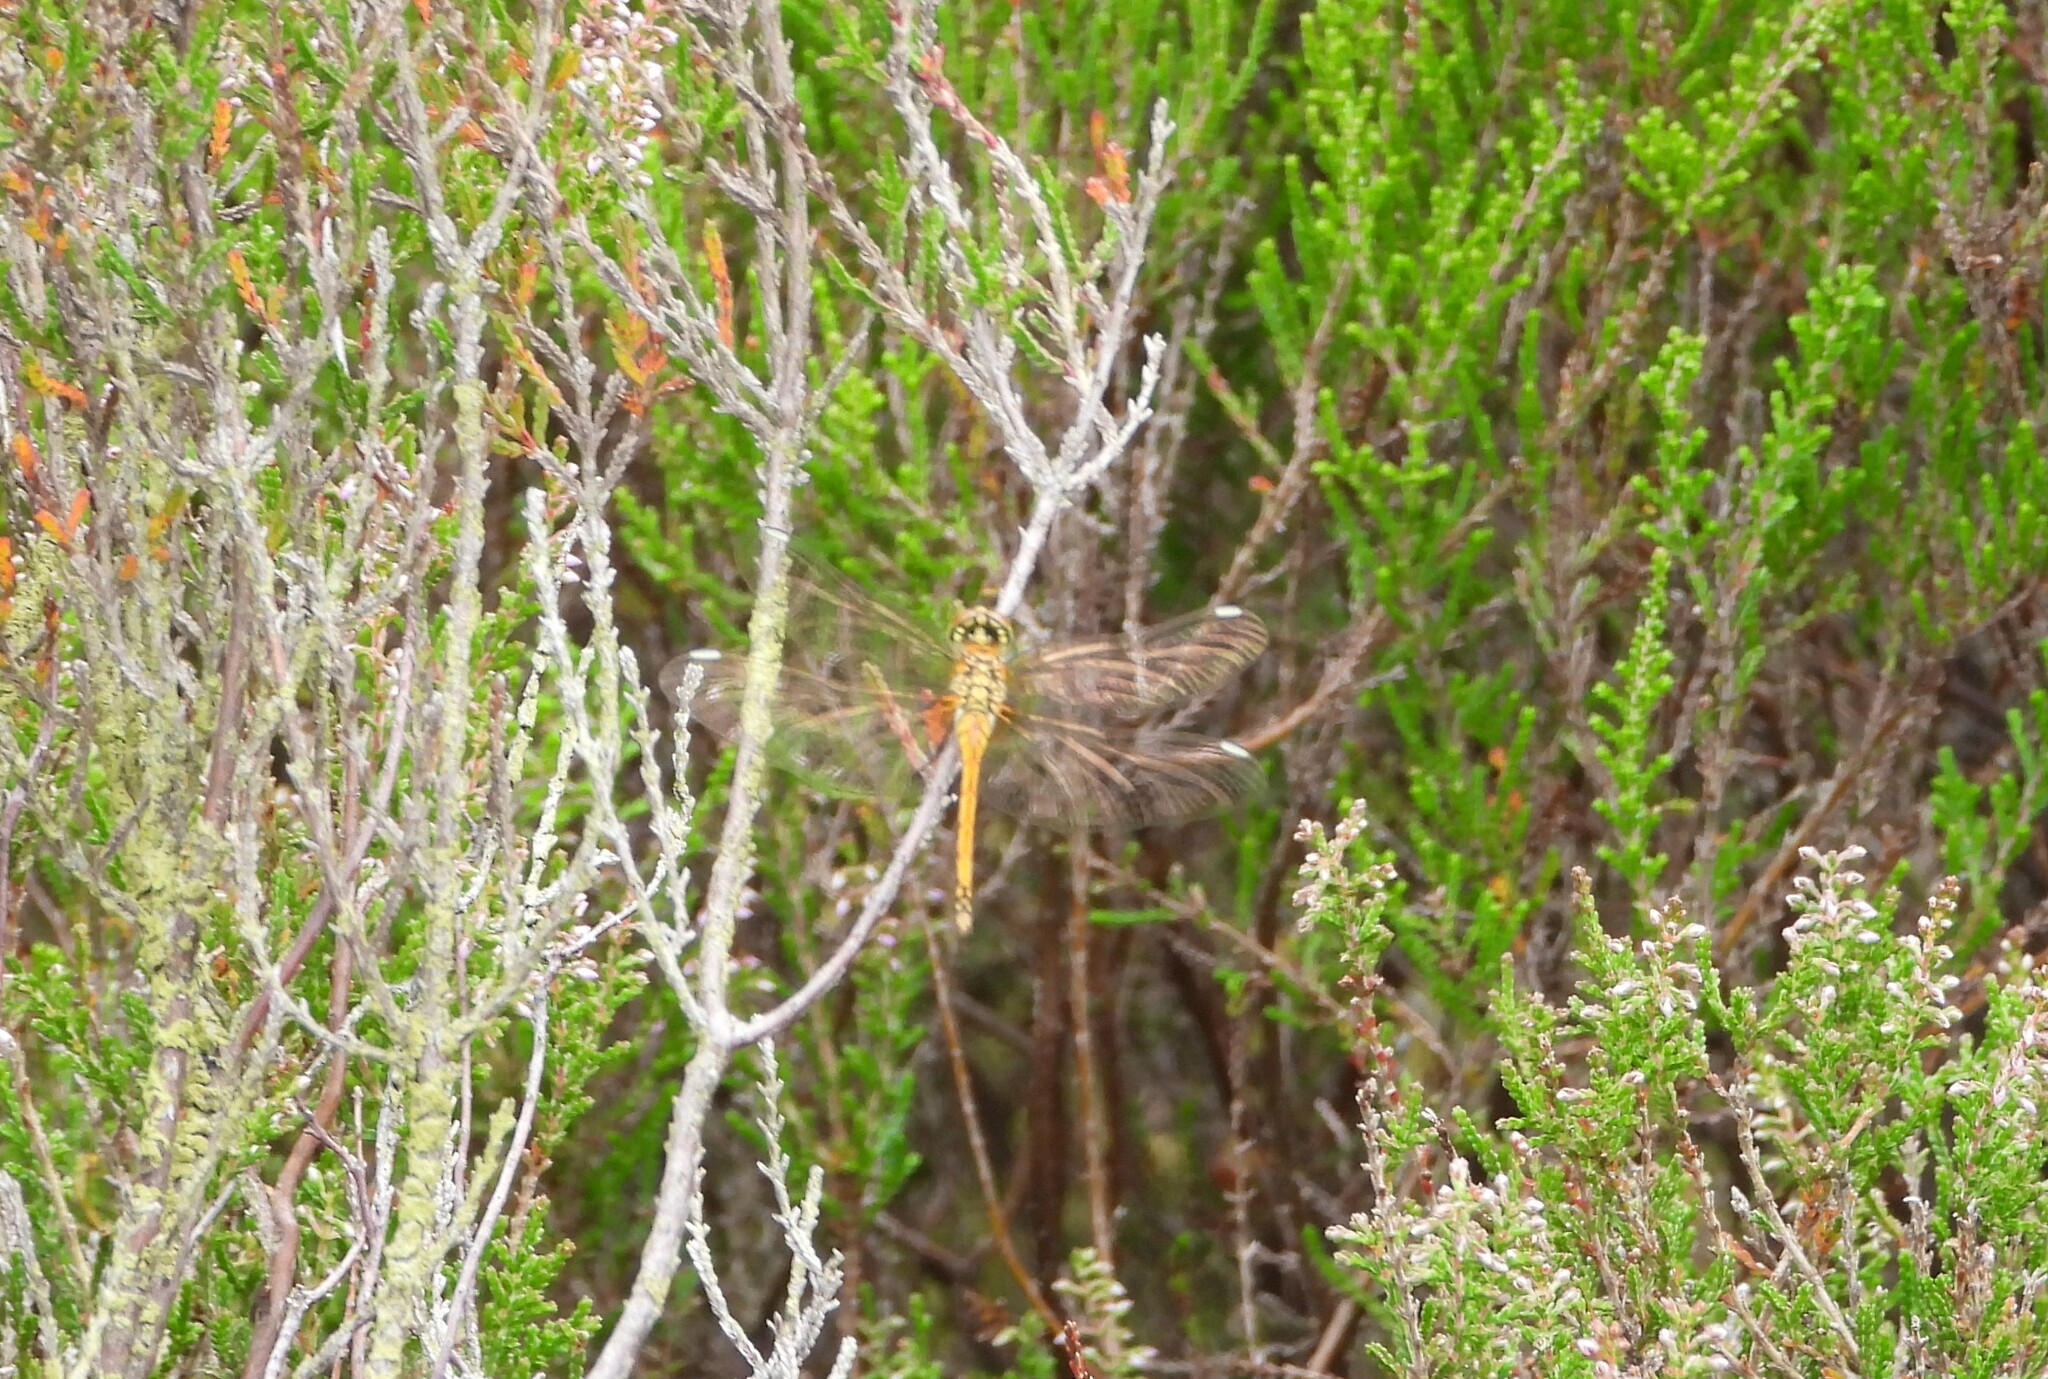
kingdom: Animalia
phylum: Arthropoda
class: Insecta
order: Odonata
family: Libellulidae
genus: Sympetrum
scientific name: Sympetrum danae
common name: Black darter
